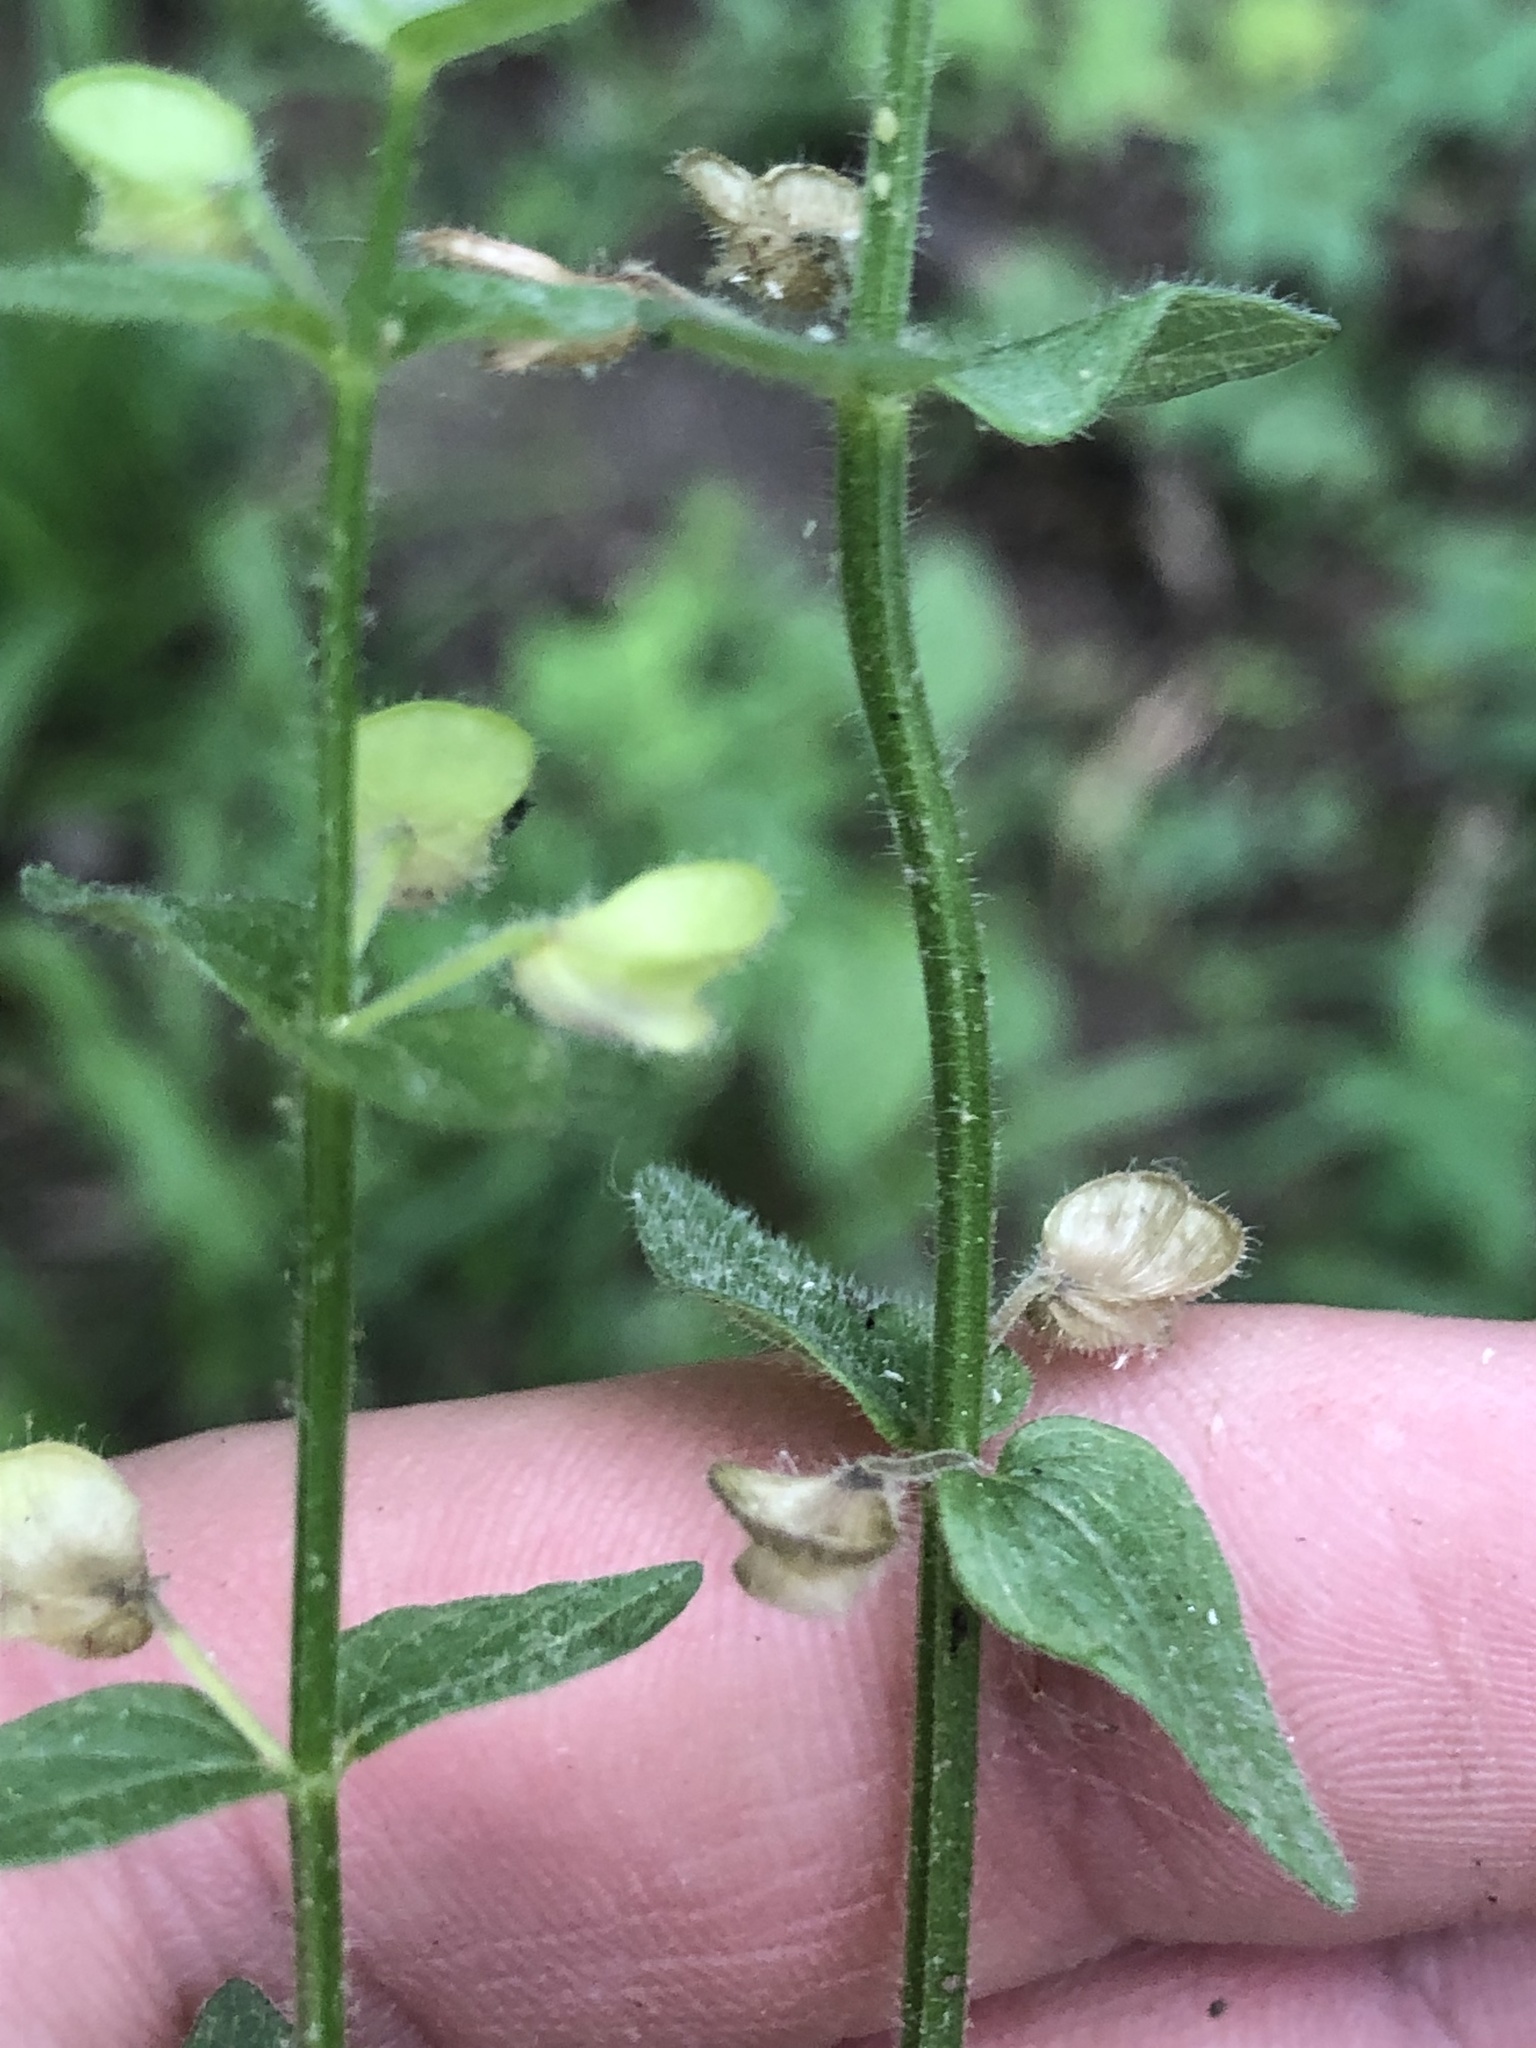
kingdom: Plantae
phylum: Tracheophyta
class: Magnoliopsida
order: Lamiales
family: Lamiaceae
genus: Scutellaria
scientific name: Scutellaria parvula
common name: Little scullcap
